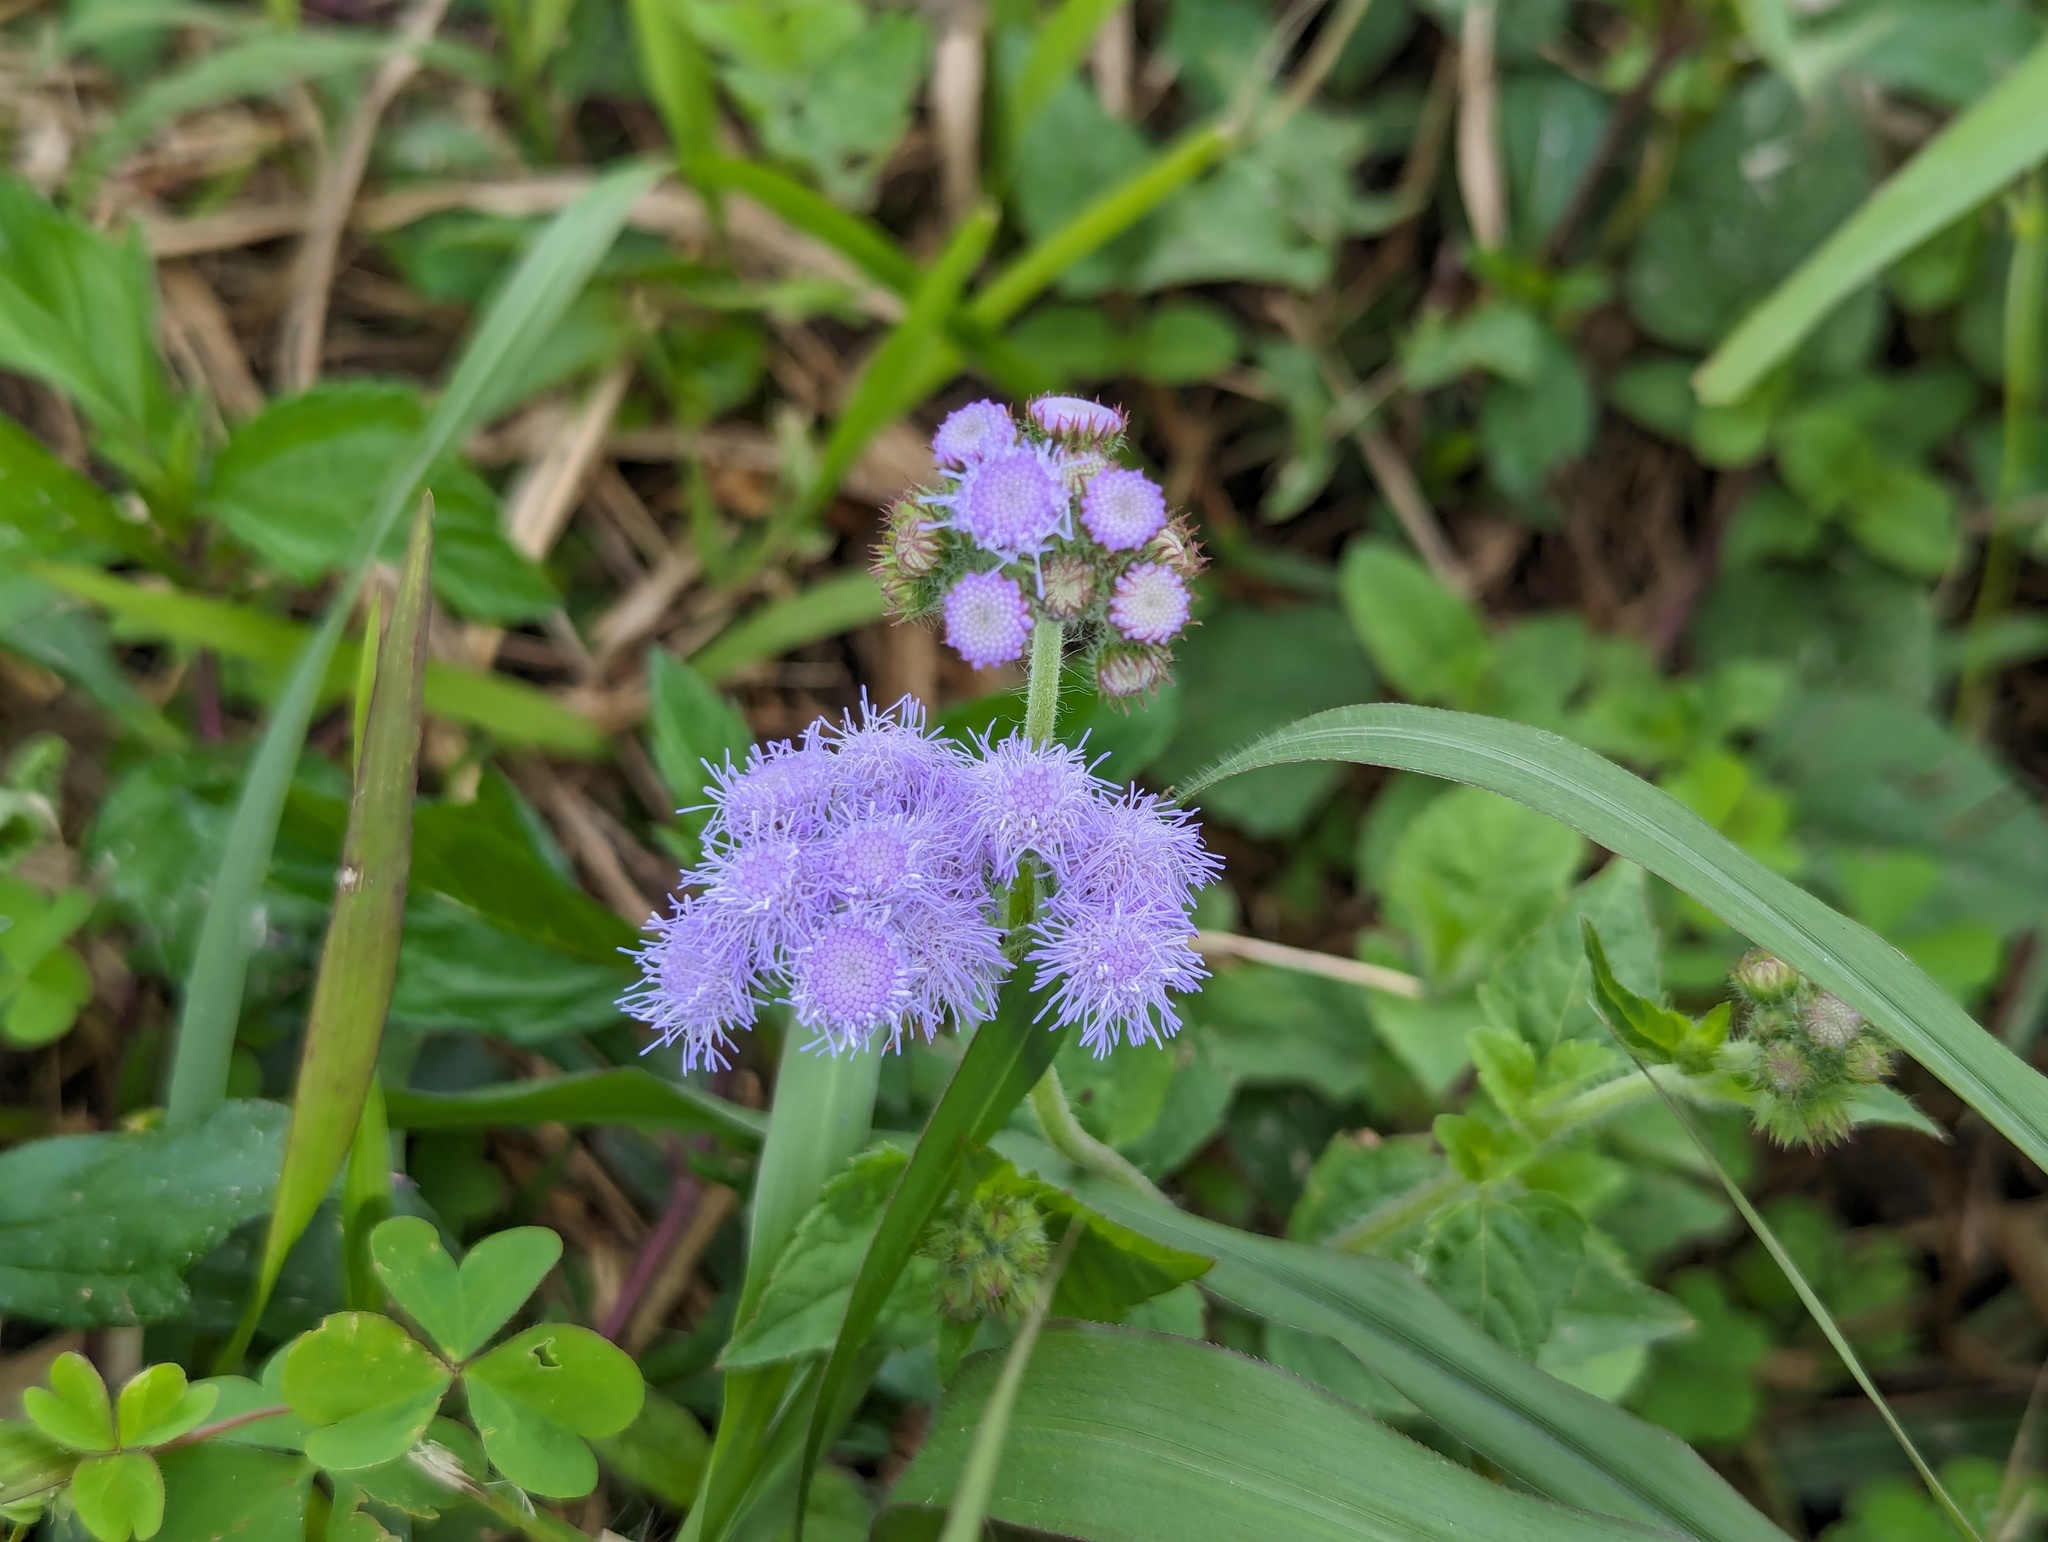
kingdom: Plantae
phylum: Tracheophyta
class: Magnoliopsida
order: Asterales
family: Asteraceae
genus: Ageratum
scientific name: Ageratum houstonianum
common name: Bluemink
